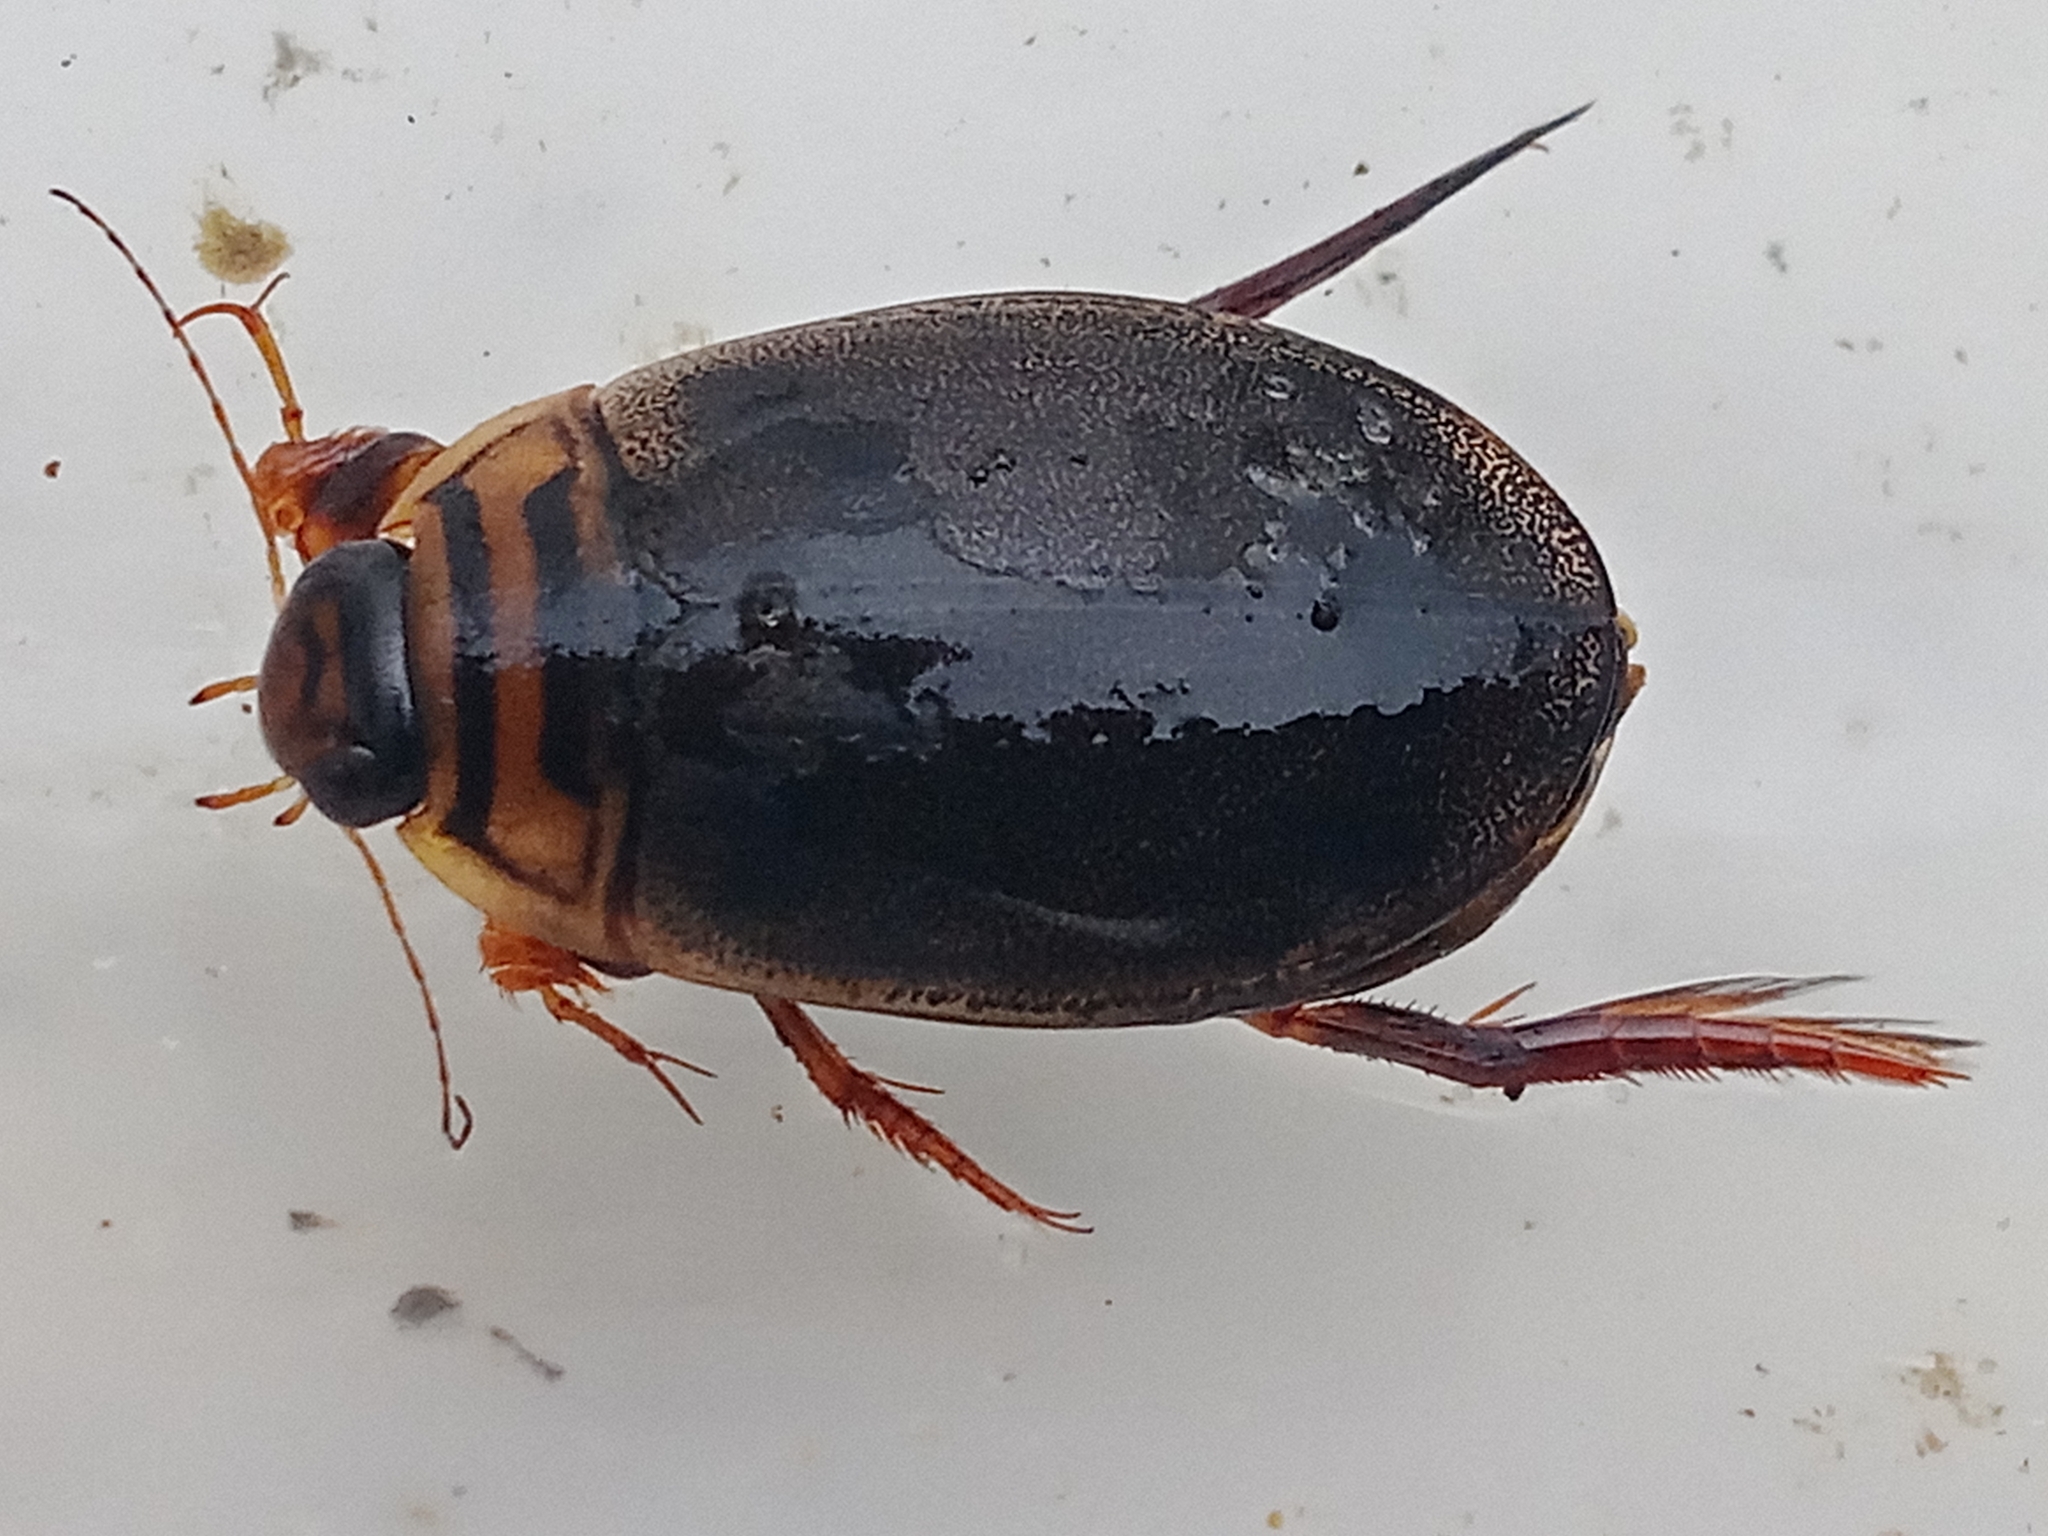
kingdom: Animalia
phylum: Arthropoda
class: Insecta
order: Coleoptera
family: Dytiscidae
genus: Acilius
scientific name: Acilius canaliculatus
